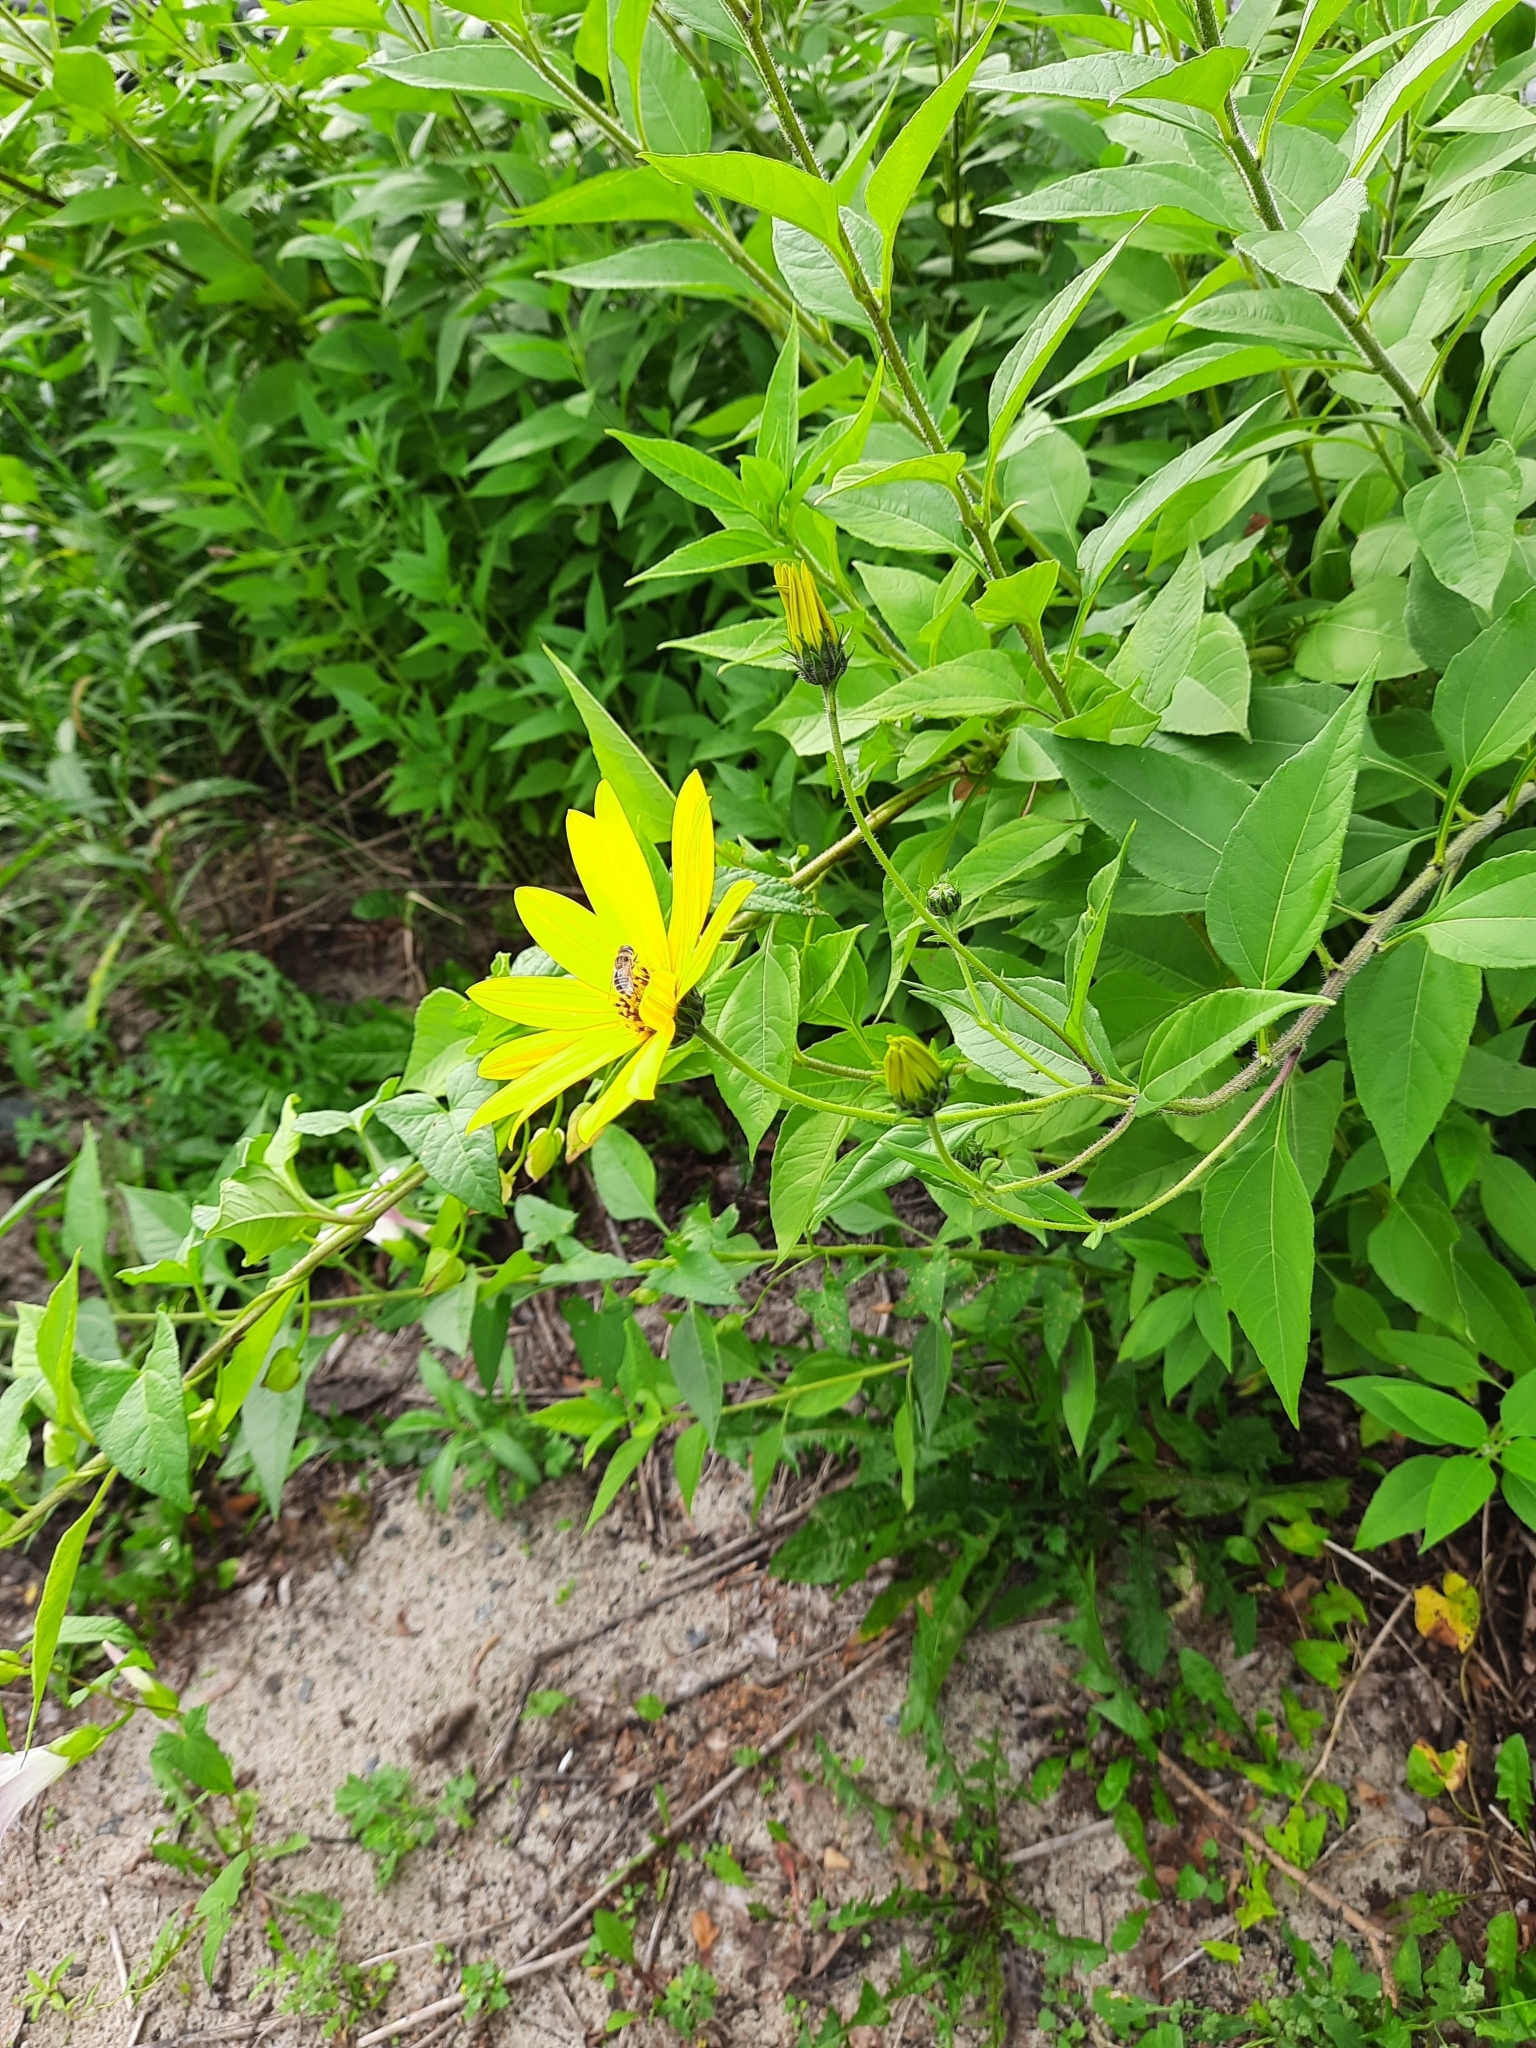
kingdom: Plantae
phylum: Tracheophyta
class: Magnoliopsida
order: Asterales
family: Asteraceae
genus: Helianthus
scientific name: Helianthus tuberosus
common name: Jerusalem artichoke
